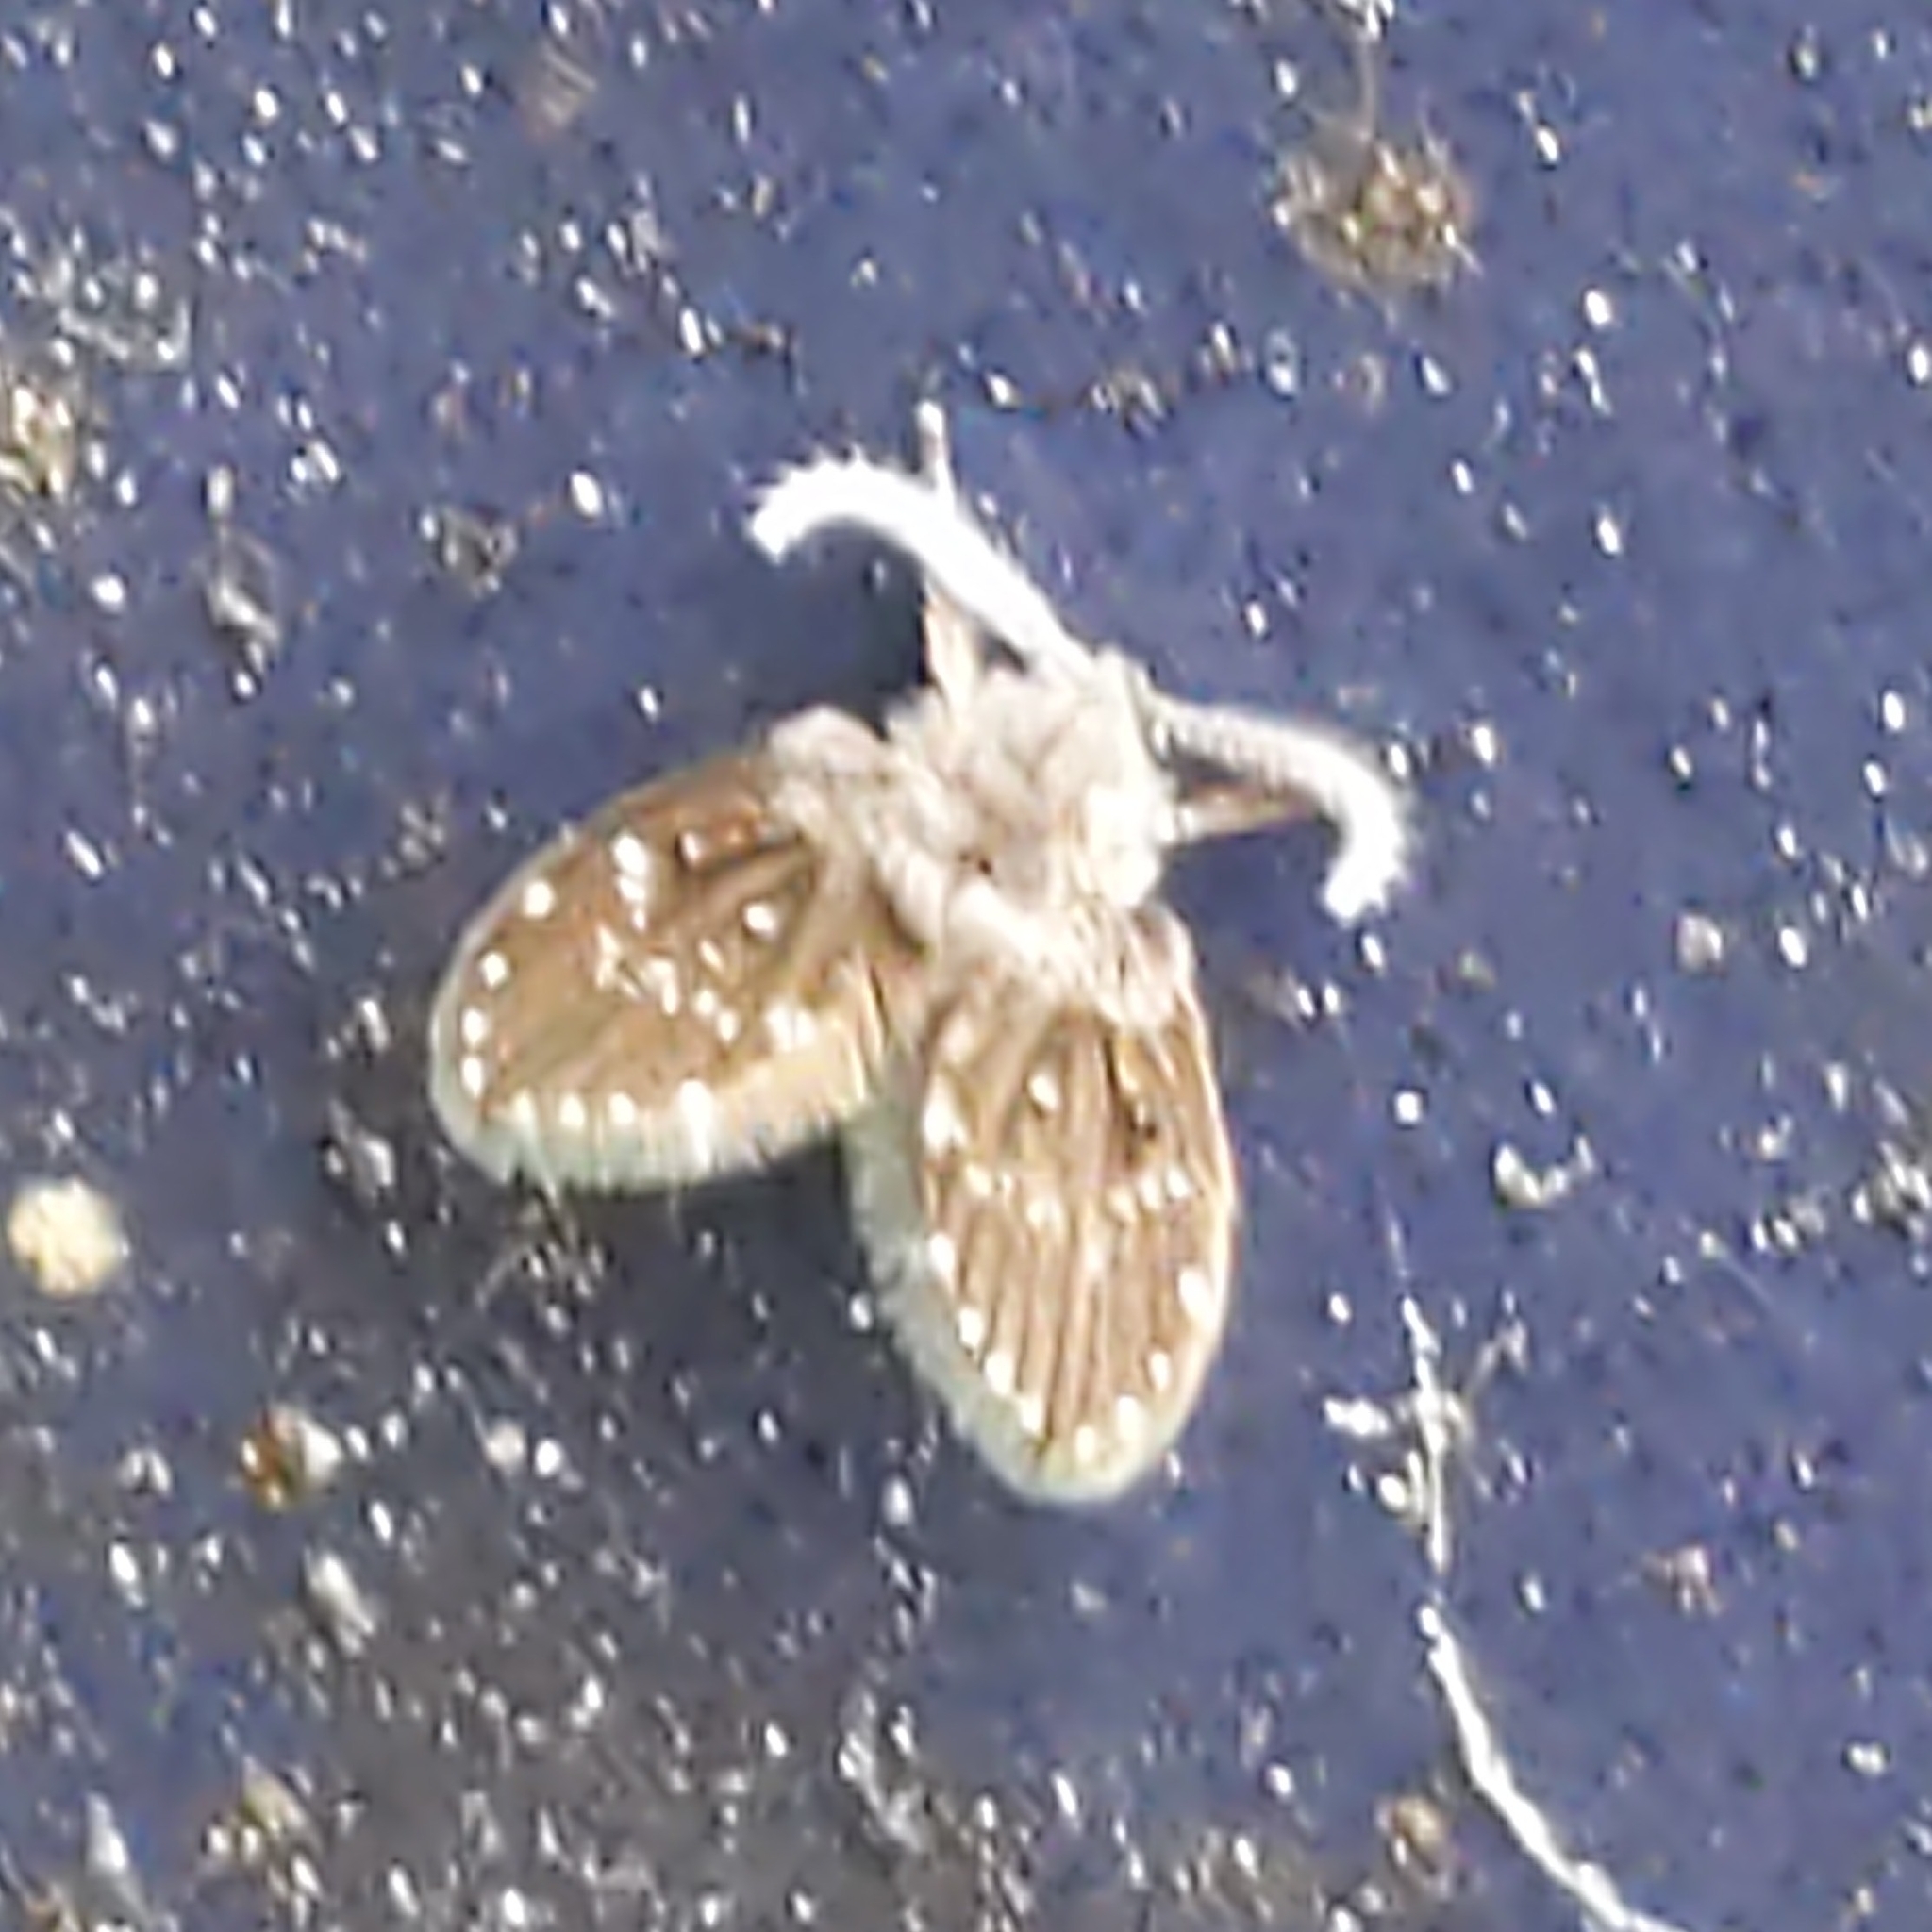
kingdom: Animalia
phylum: Arthropoda
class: Insecta
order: Diptera
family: Psychodidae
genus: Clogmia
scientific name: Clogmia albipunctatus
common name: White-spotted moth fly
